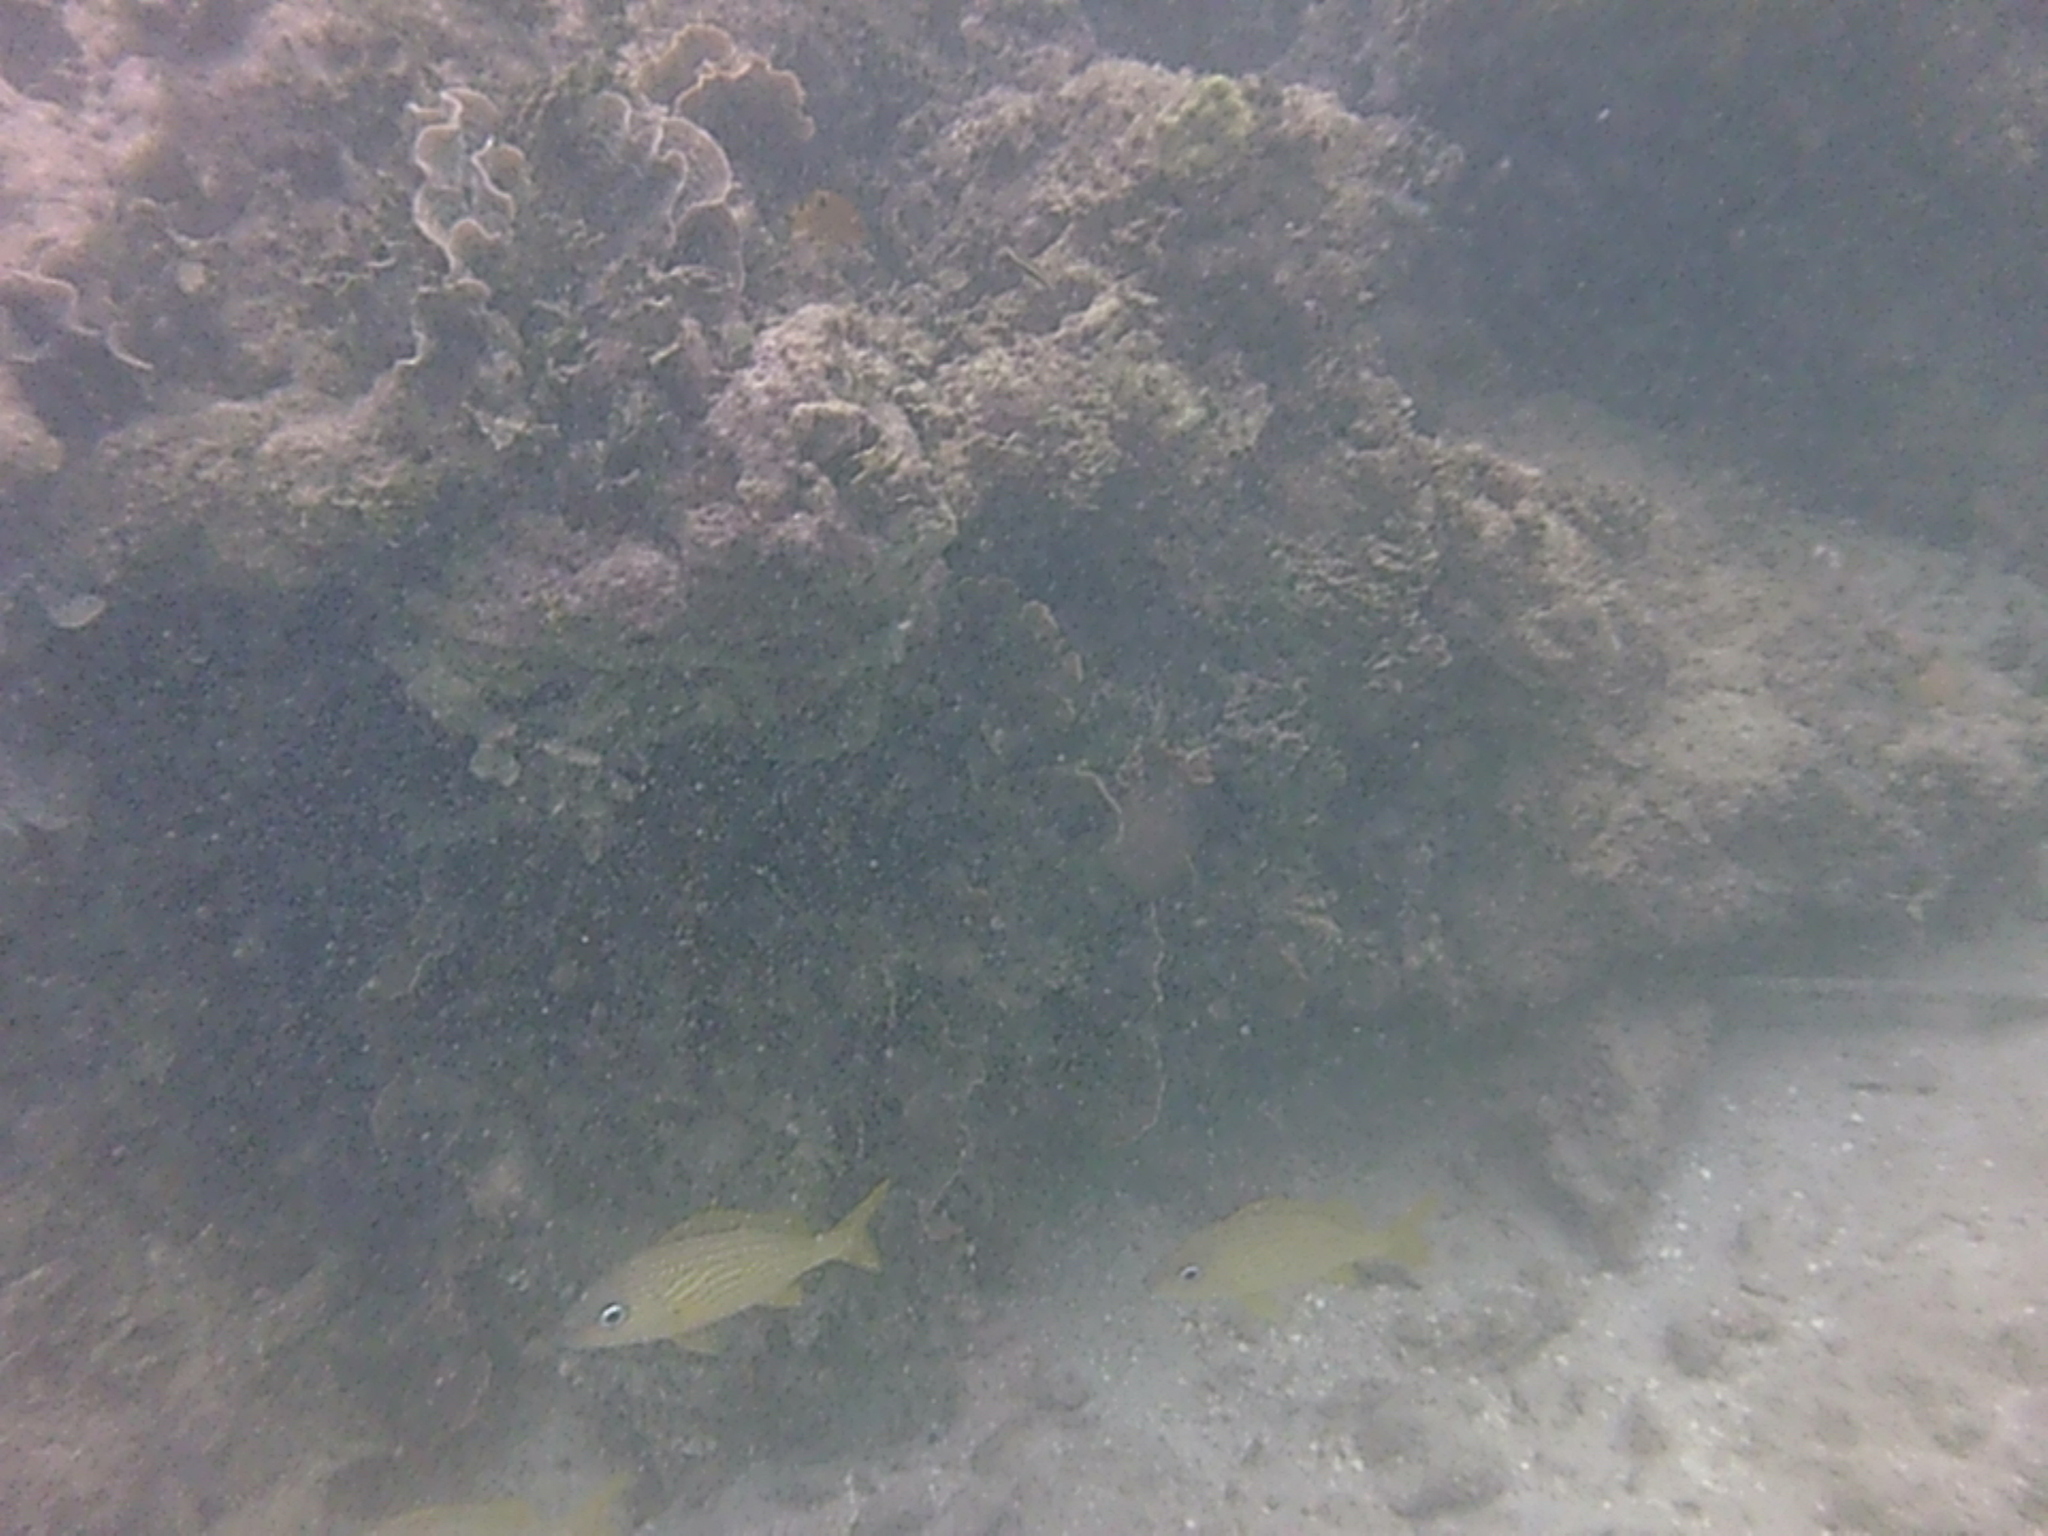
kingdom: Animalia
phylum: Chordata
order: Perciformes
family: Haemulidae
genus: Haemulon
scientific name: Haemulon flavolineatum
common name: French grunt
